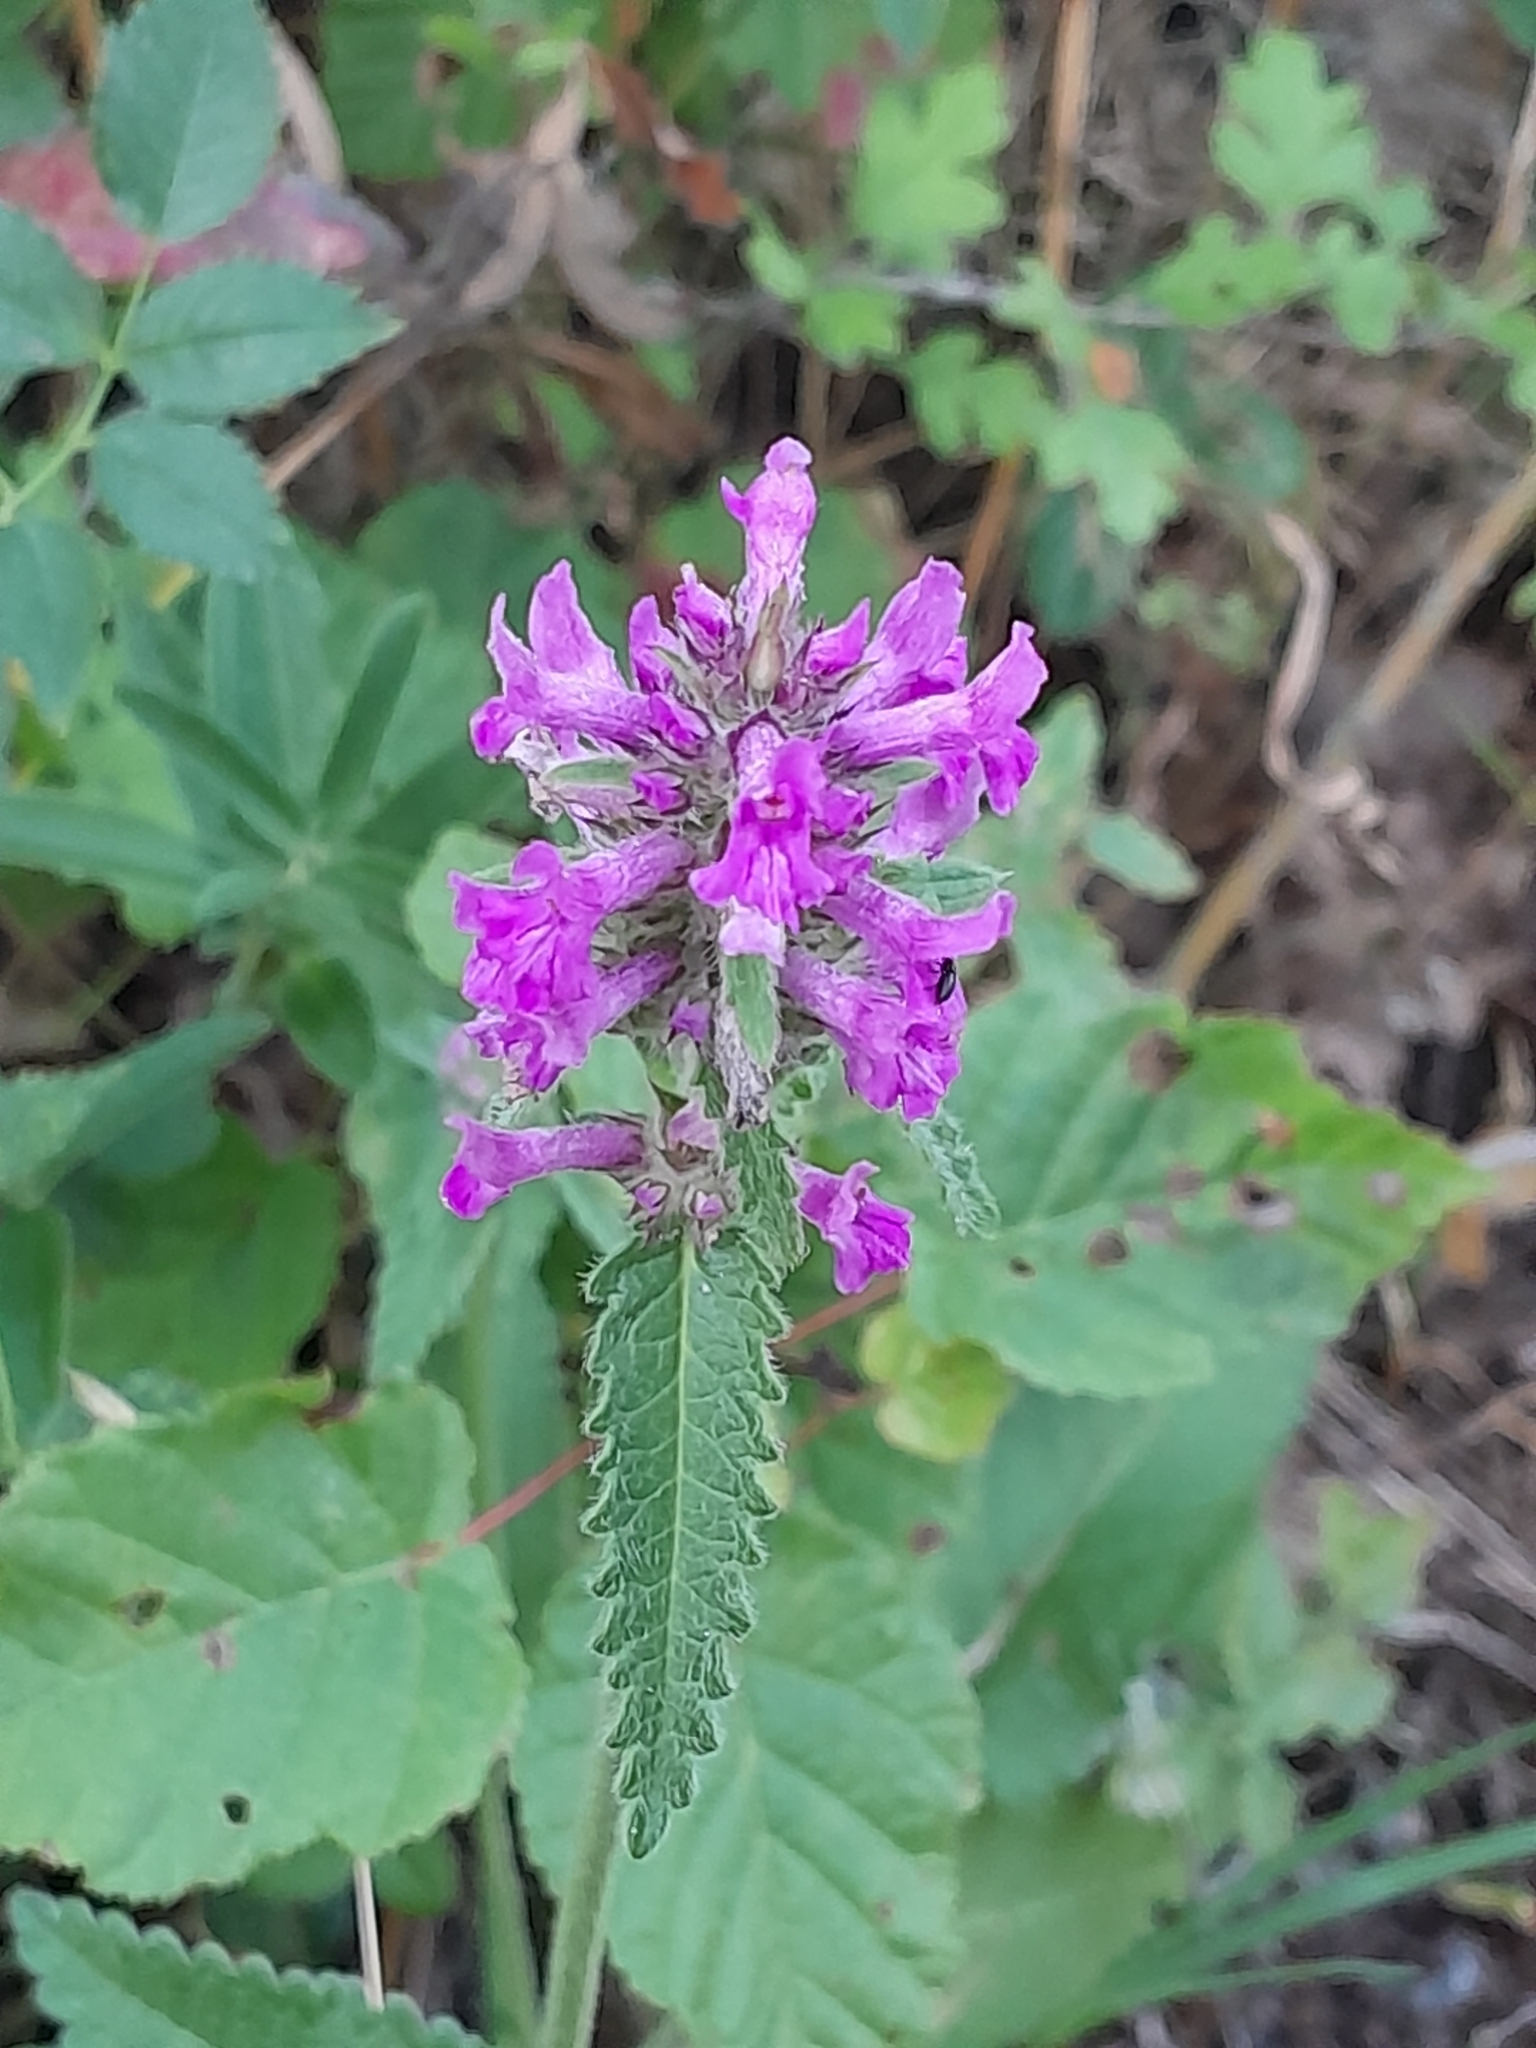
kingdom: Plantae
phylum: Tracheophyta
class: Magnoliopsida
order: Lamiales
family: Lamiaceae
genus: Betonica
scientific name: Betonica officinalis
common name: Bishop's-wort
